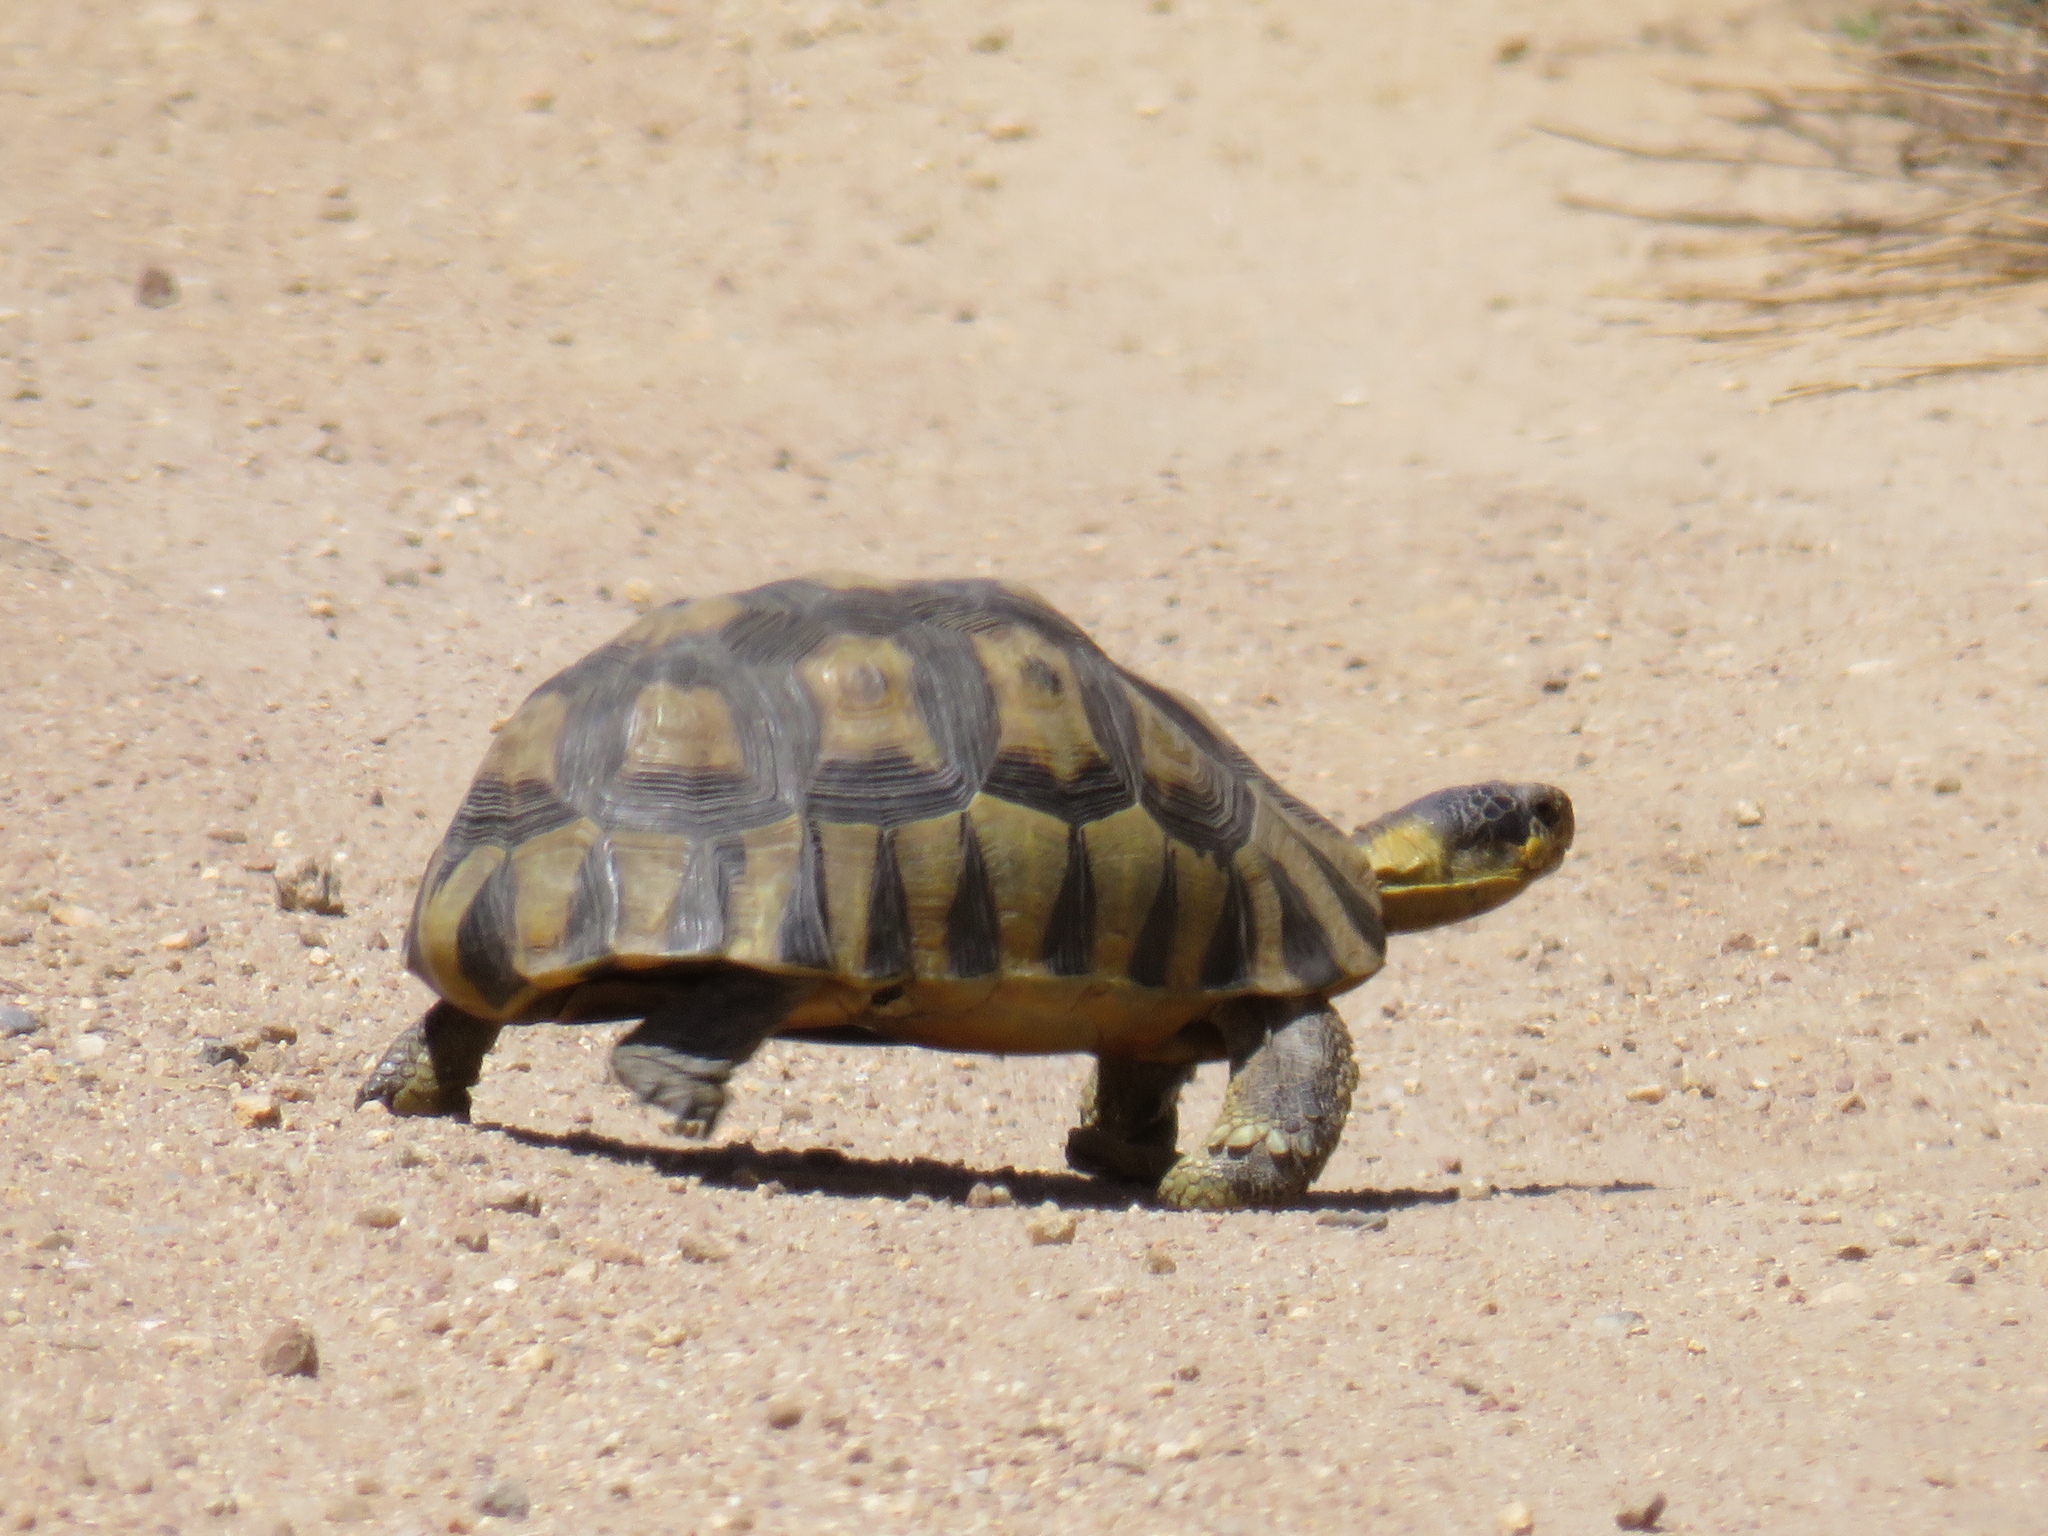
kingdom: Animalia
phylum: Chordata
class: Testudines
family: Testudinidae
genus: Chersina
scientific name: Chersina angulata
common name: South african bowsprit tortoise
